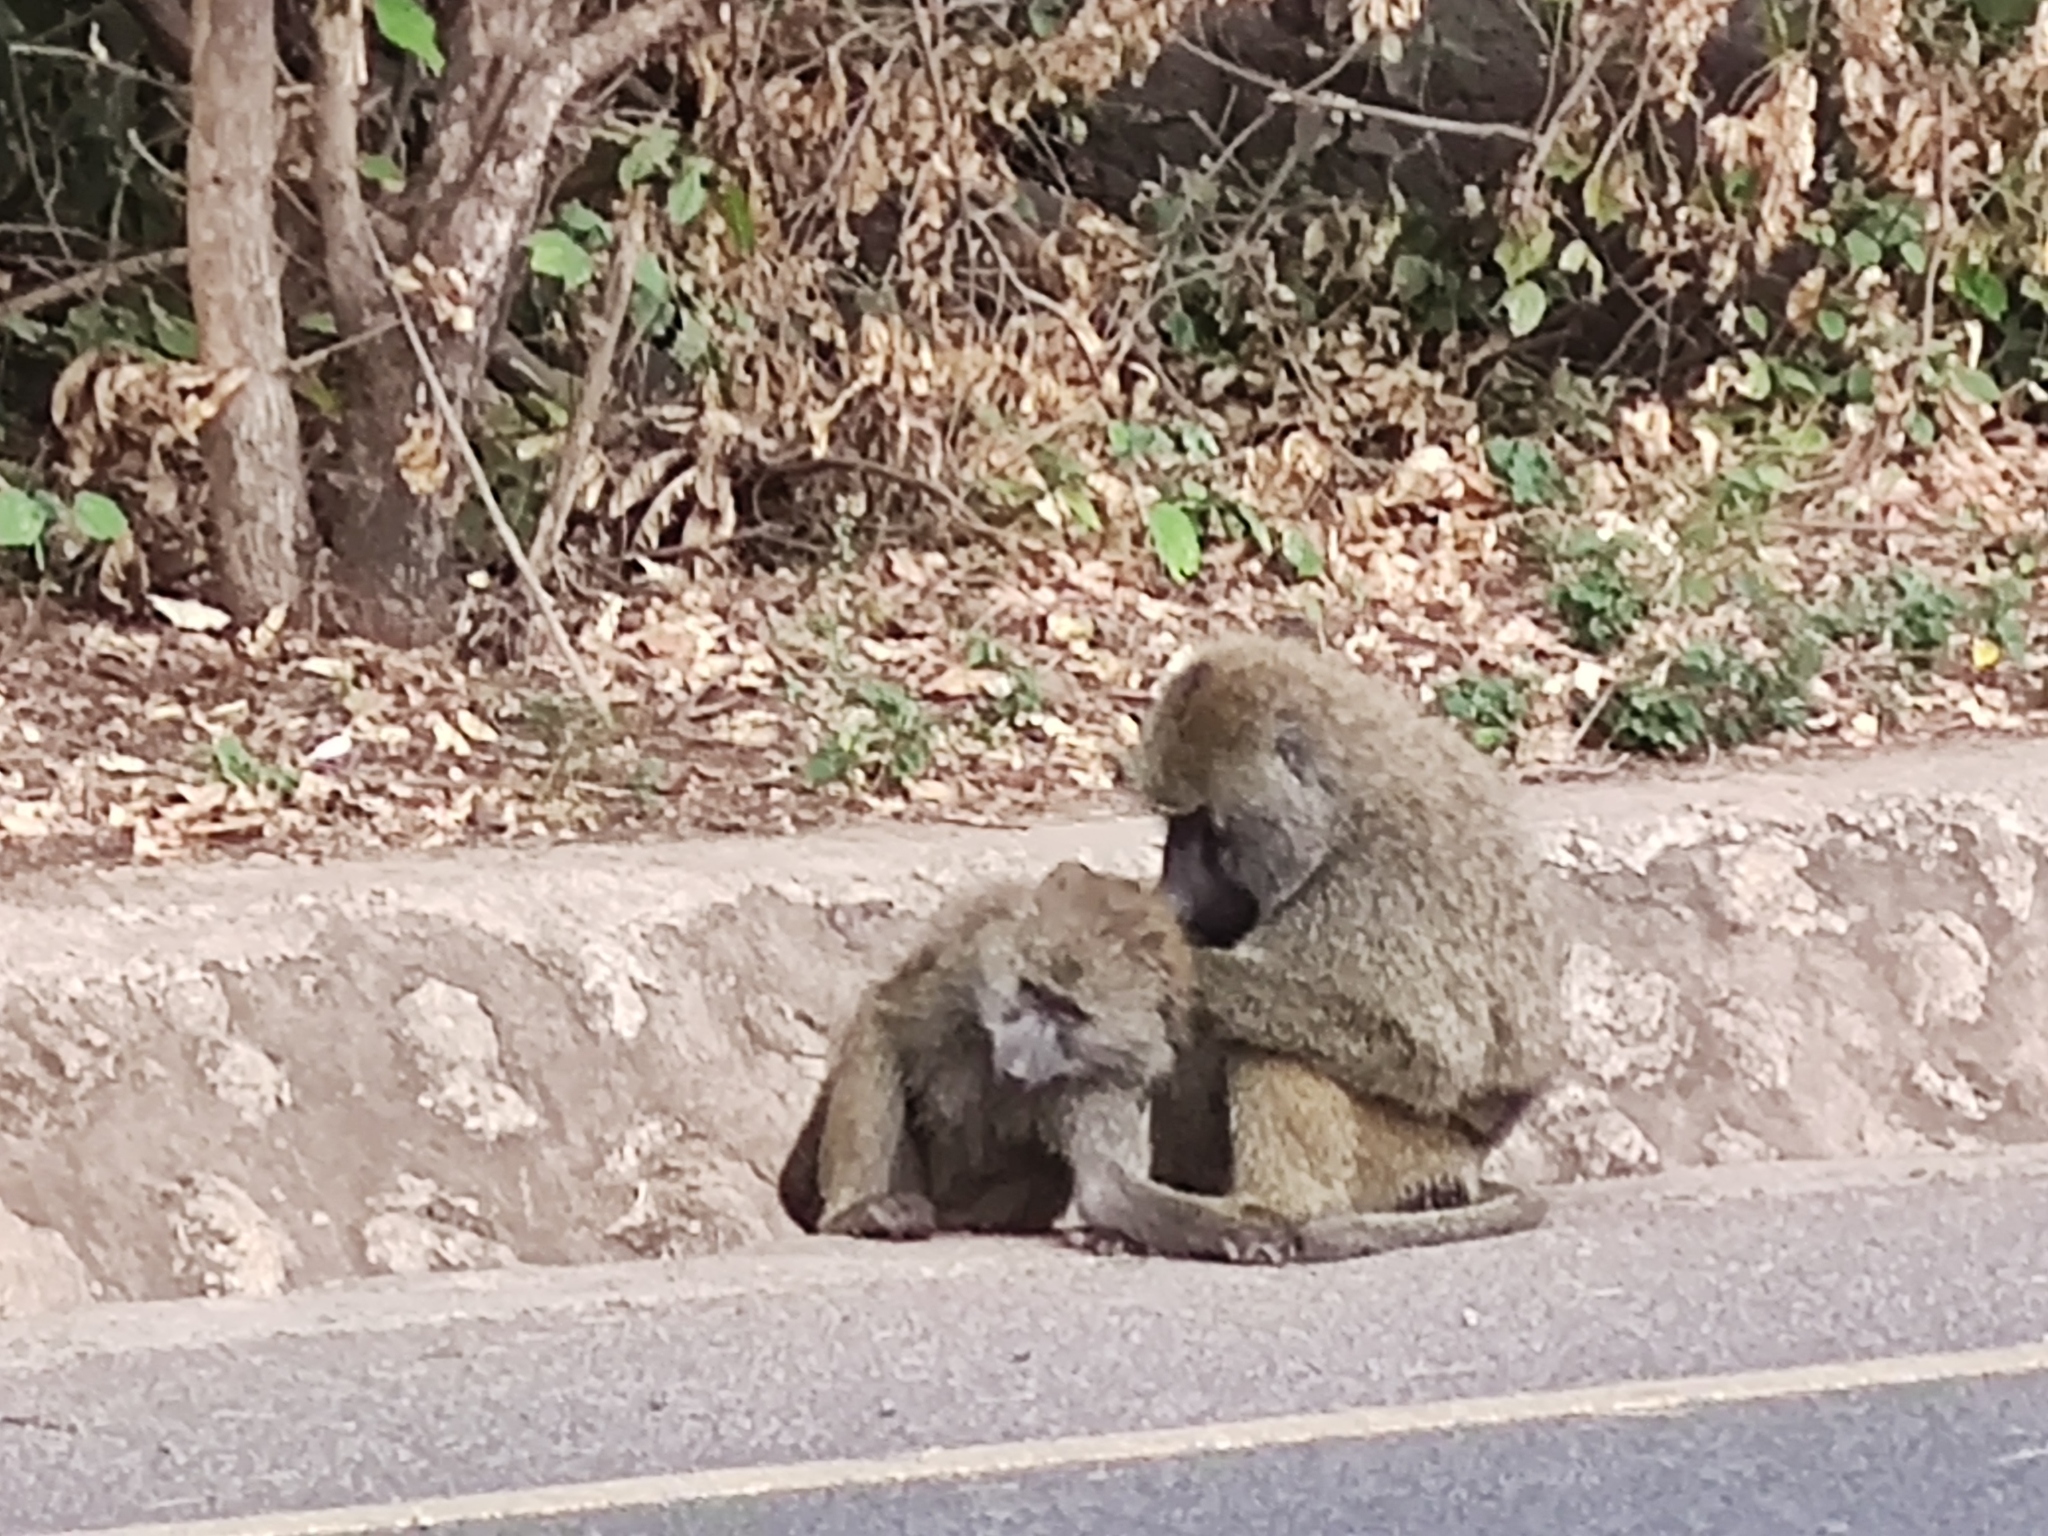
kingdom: Animalia
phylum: Chordata
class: Mammalia
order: Primates
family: Cercopithecidae
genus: Papio
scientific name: Papio anubis
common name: Olive baboon
